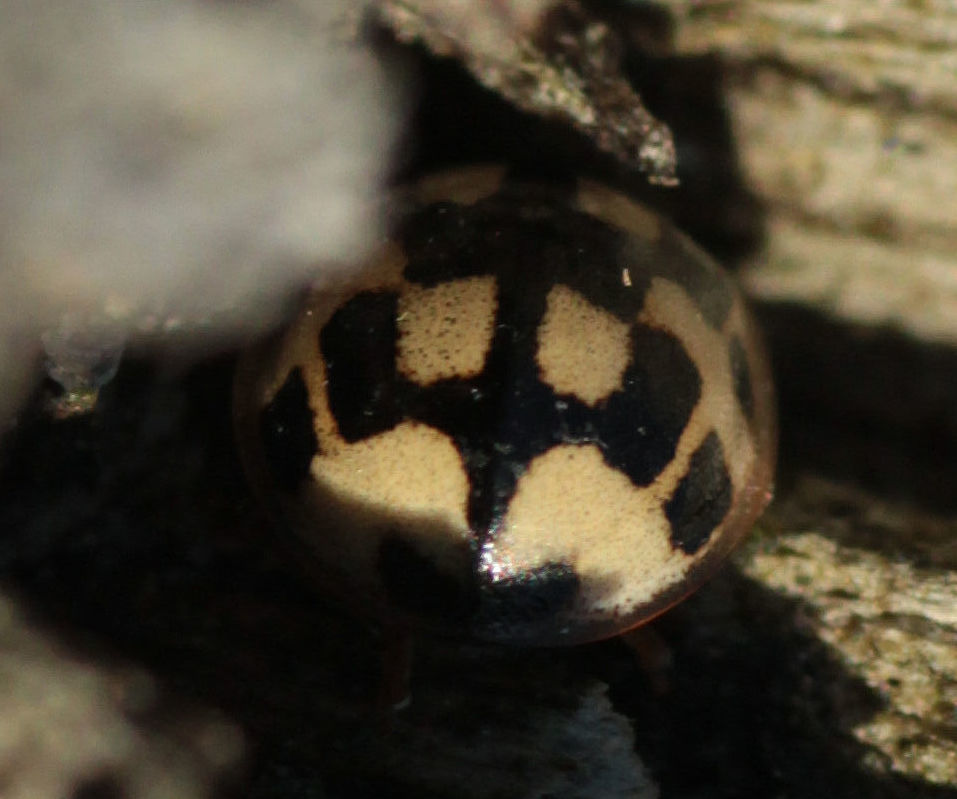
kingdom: Animalia
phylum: Arthropoda
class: Insecta
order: Coleoptera
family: Coccinellidae
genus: Propylaea
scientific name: Propylaea quatuordecimpunctata
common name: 14-spotted ladybird beetle
